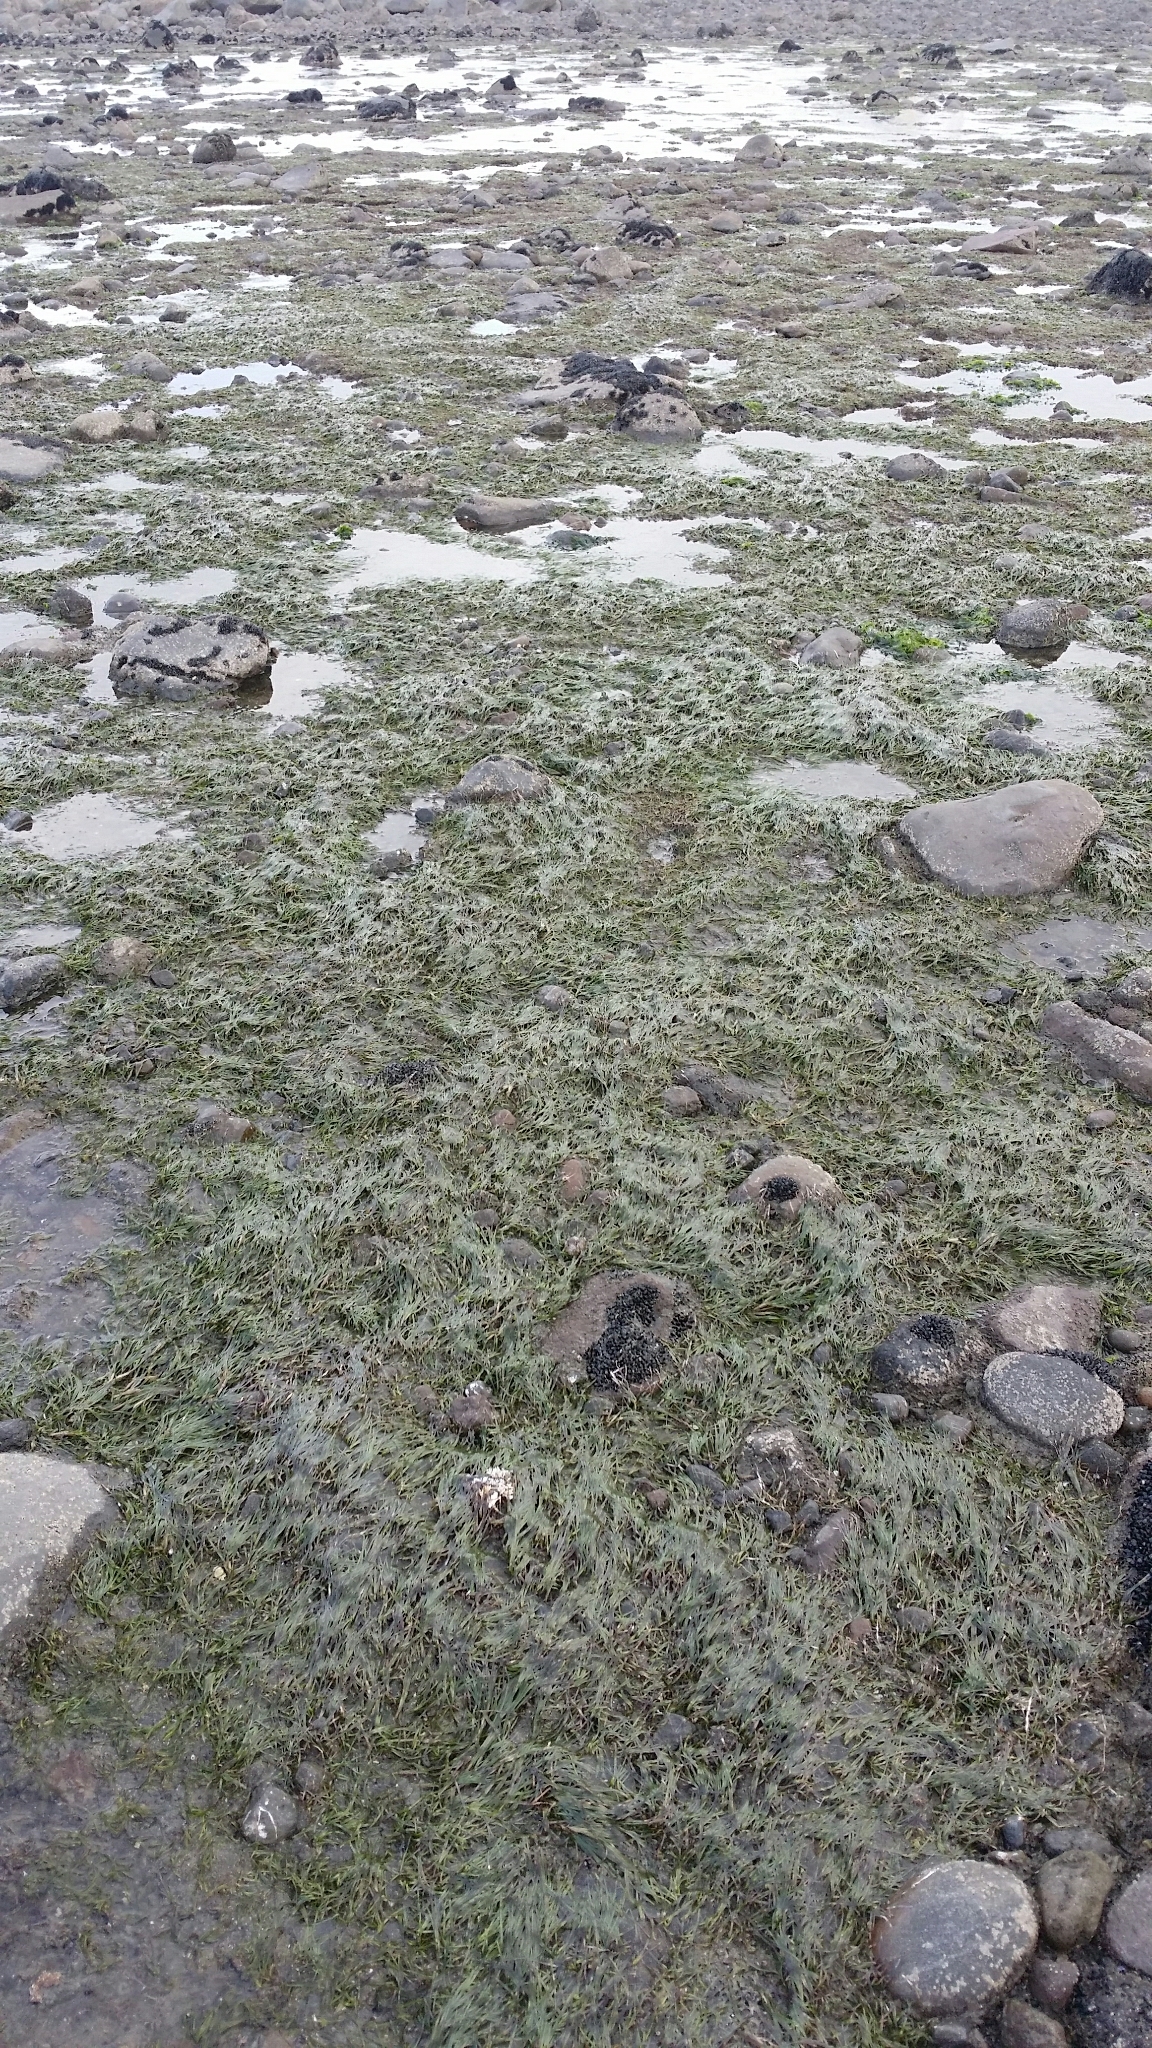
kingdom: Plantae
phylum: Tracheophyta
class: Liliopsida
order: Alismatales
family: Zosteraceae
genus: Zostera
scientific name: Zostera novazelandica
